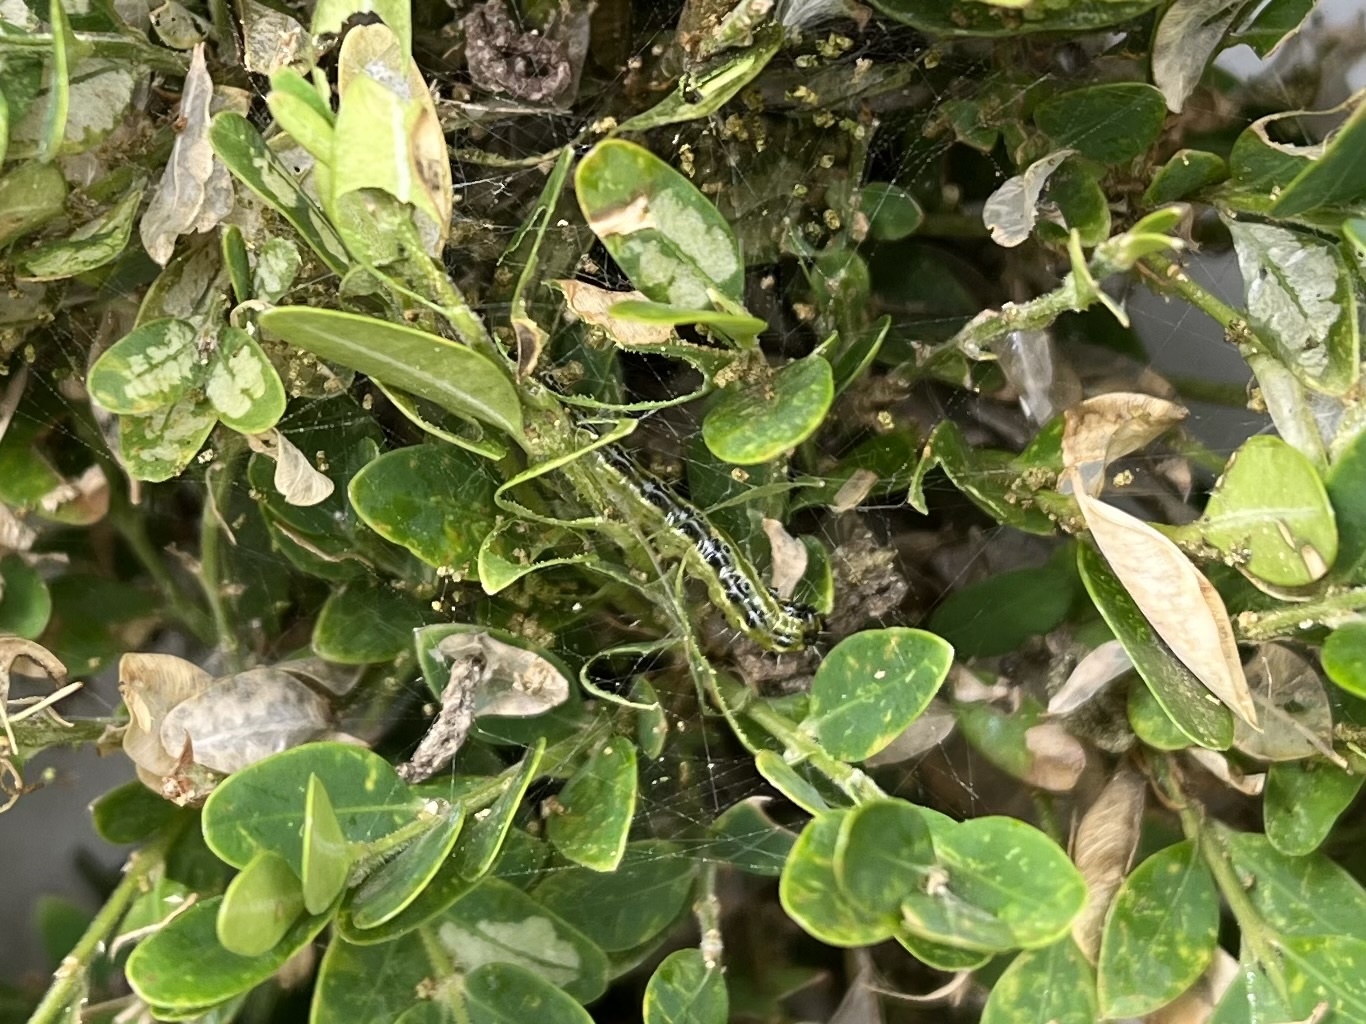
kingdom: Animalia
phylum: Arthropoda
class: Insecta
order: Lepidoptera
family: Crambidae
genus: Cydalima
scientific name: Cydalima perspectalis
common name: Box tree moth
